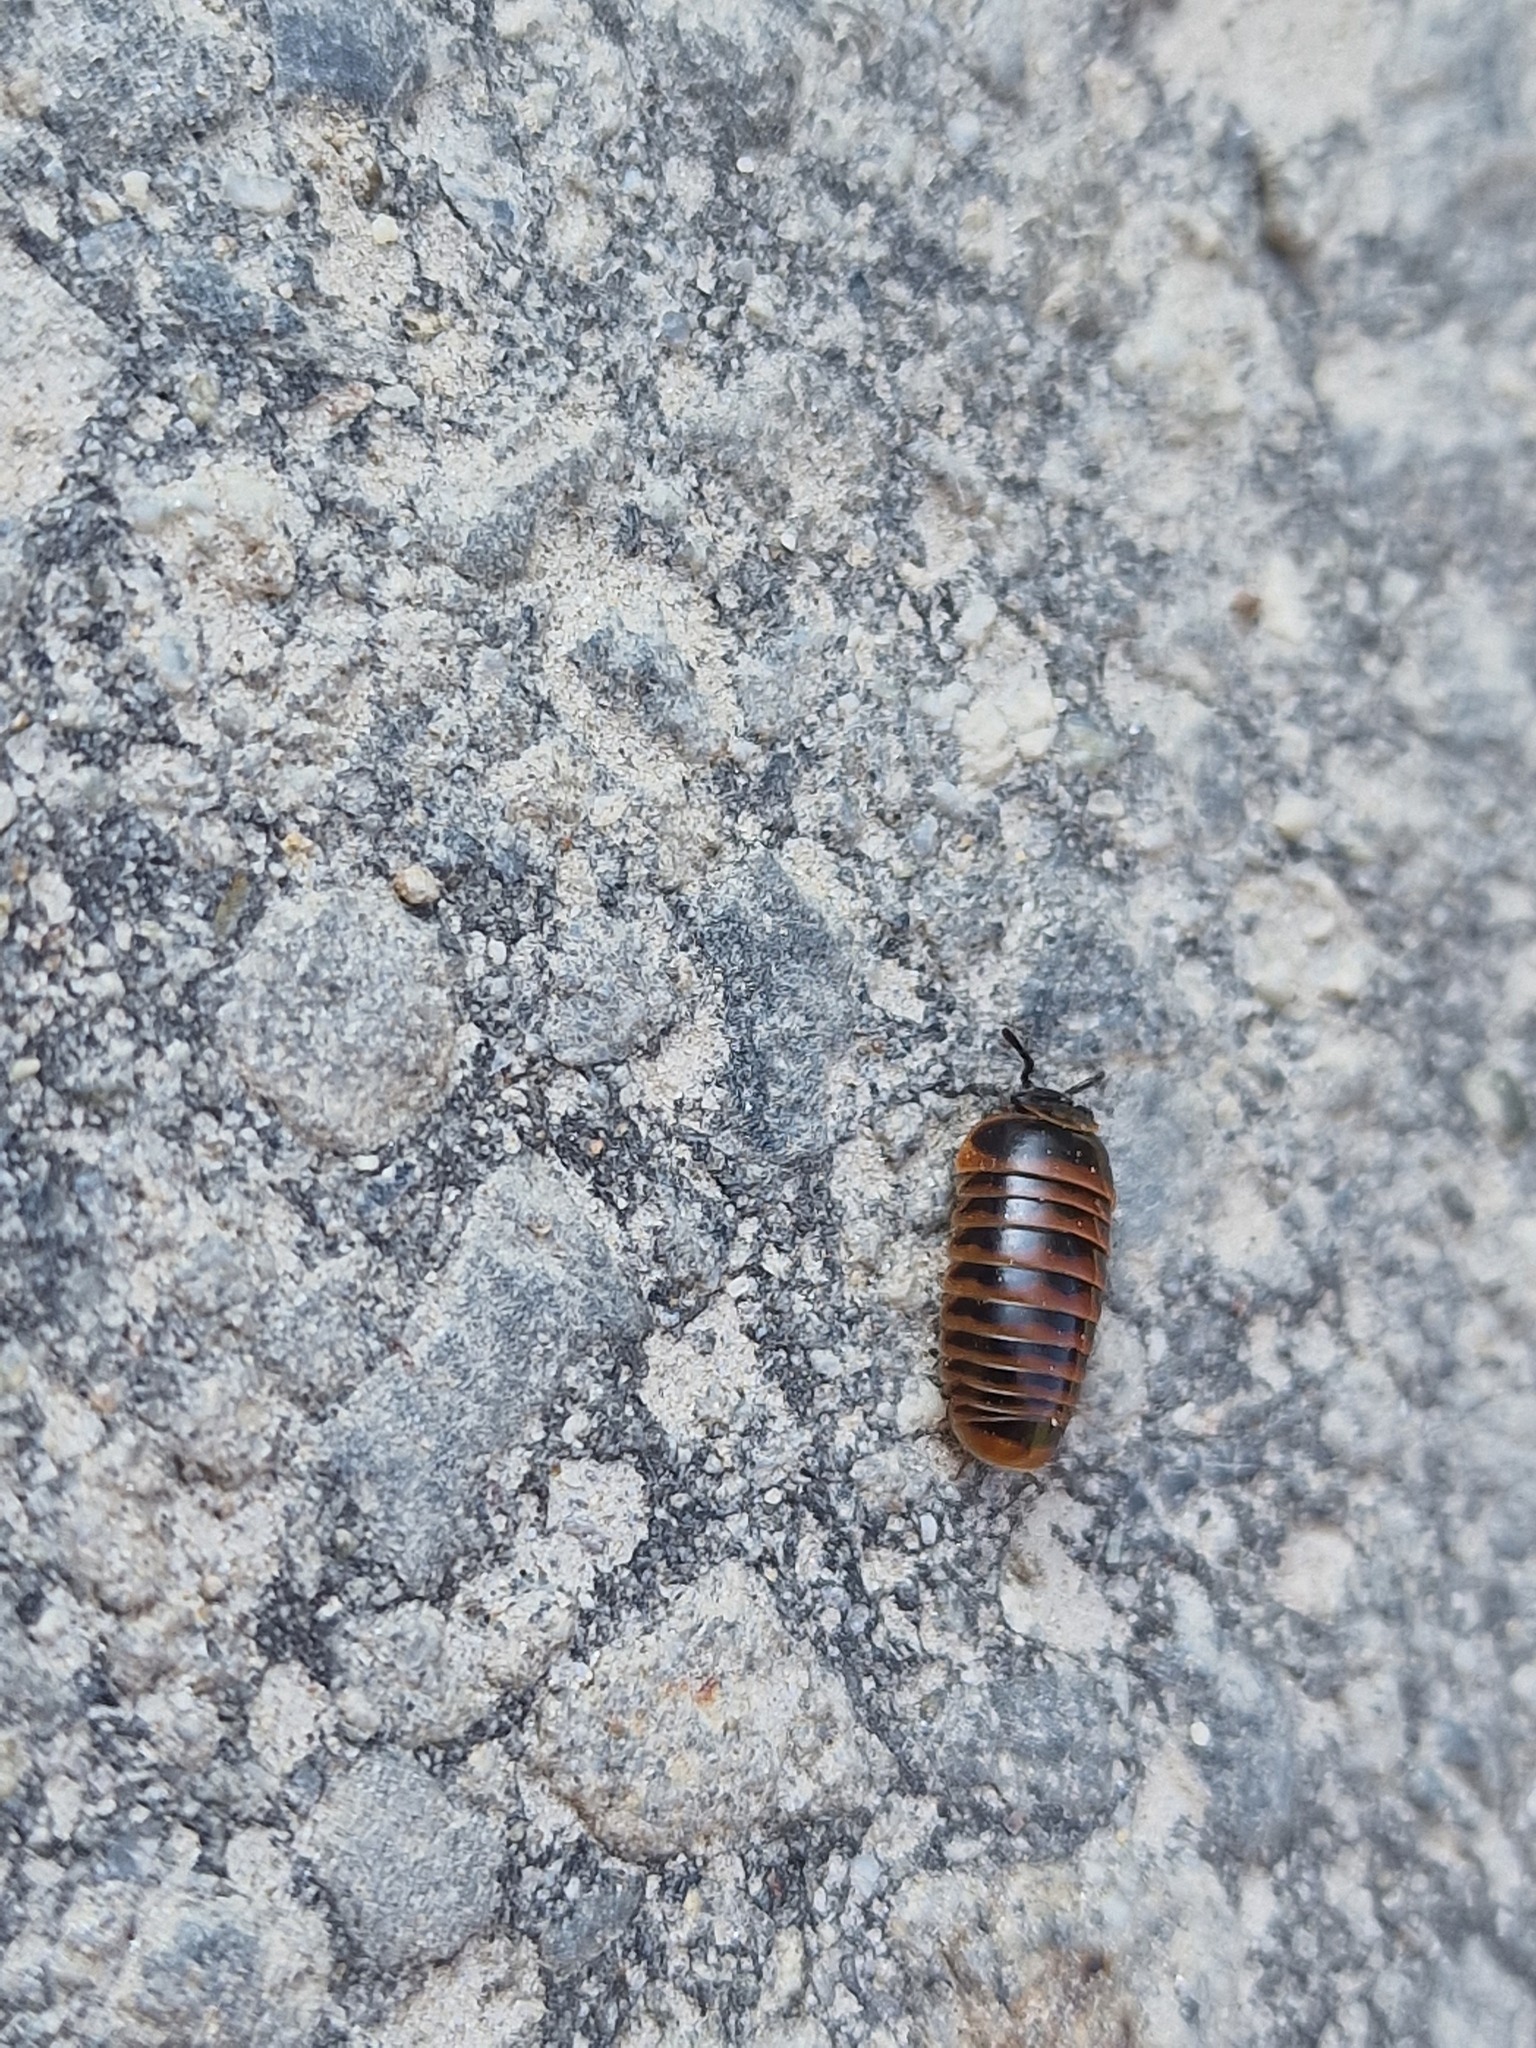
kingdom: Animalia
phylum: Arthropoda
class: Diplopoda
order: Glomerida
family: Glomeridae
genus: Glomeris
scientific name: Glomeris transalpina
